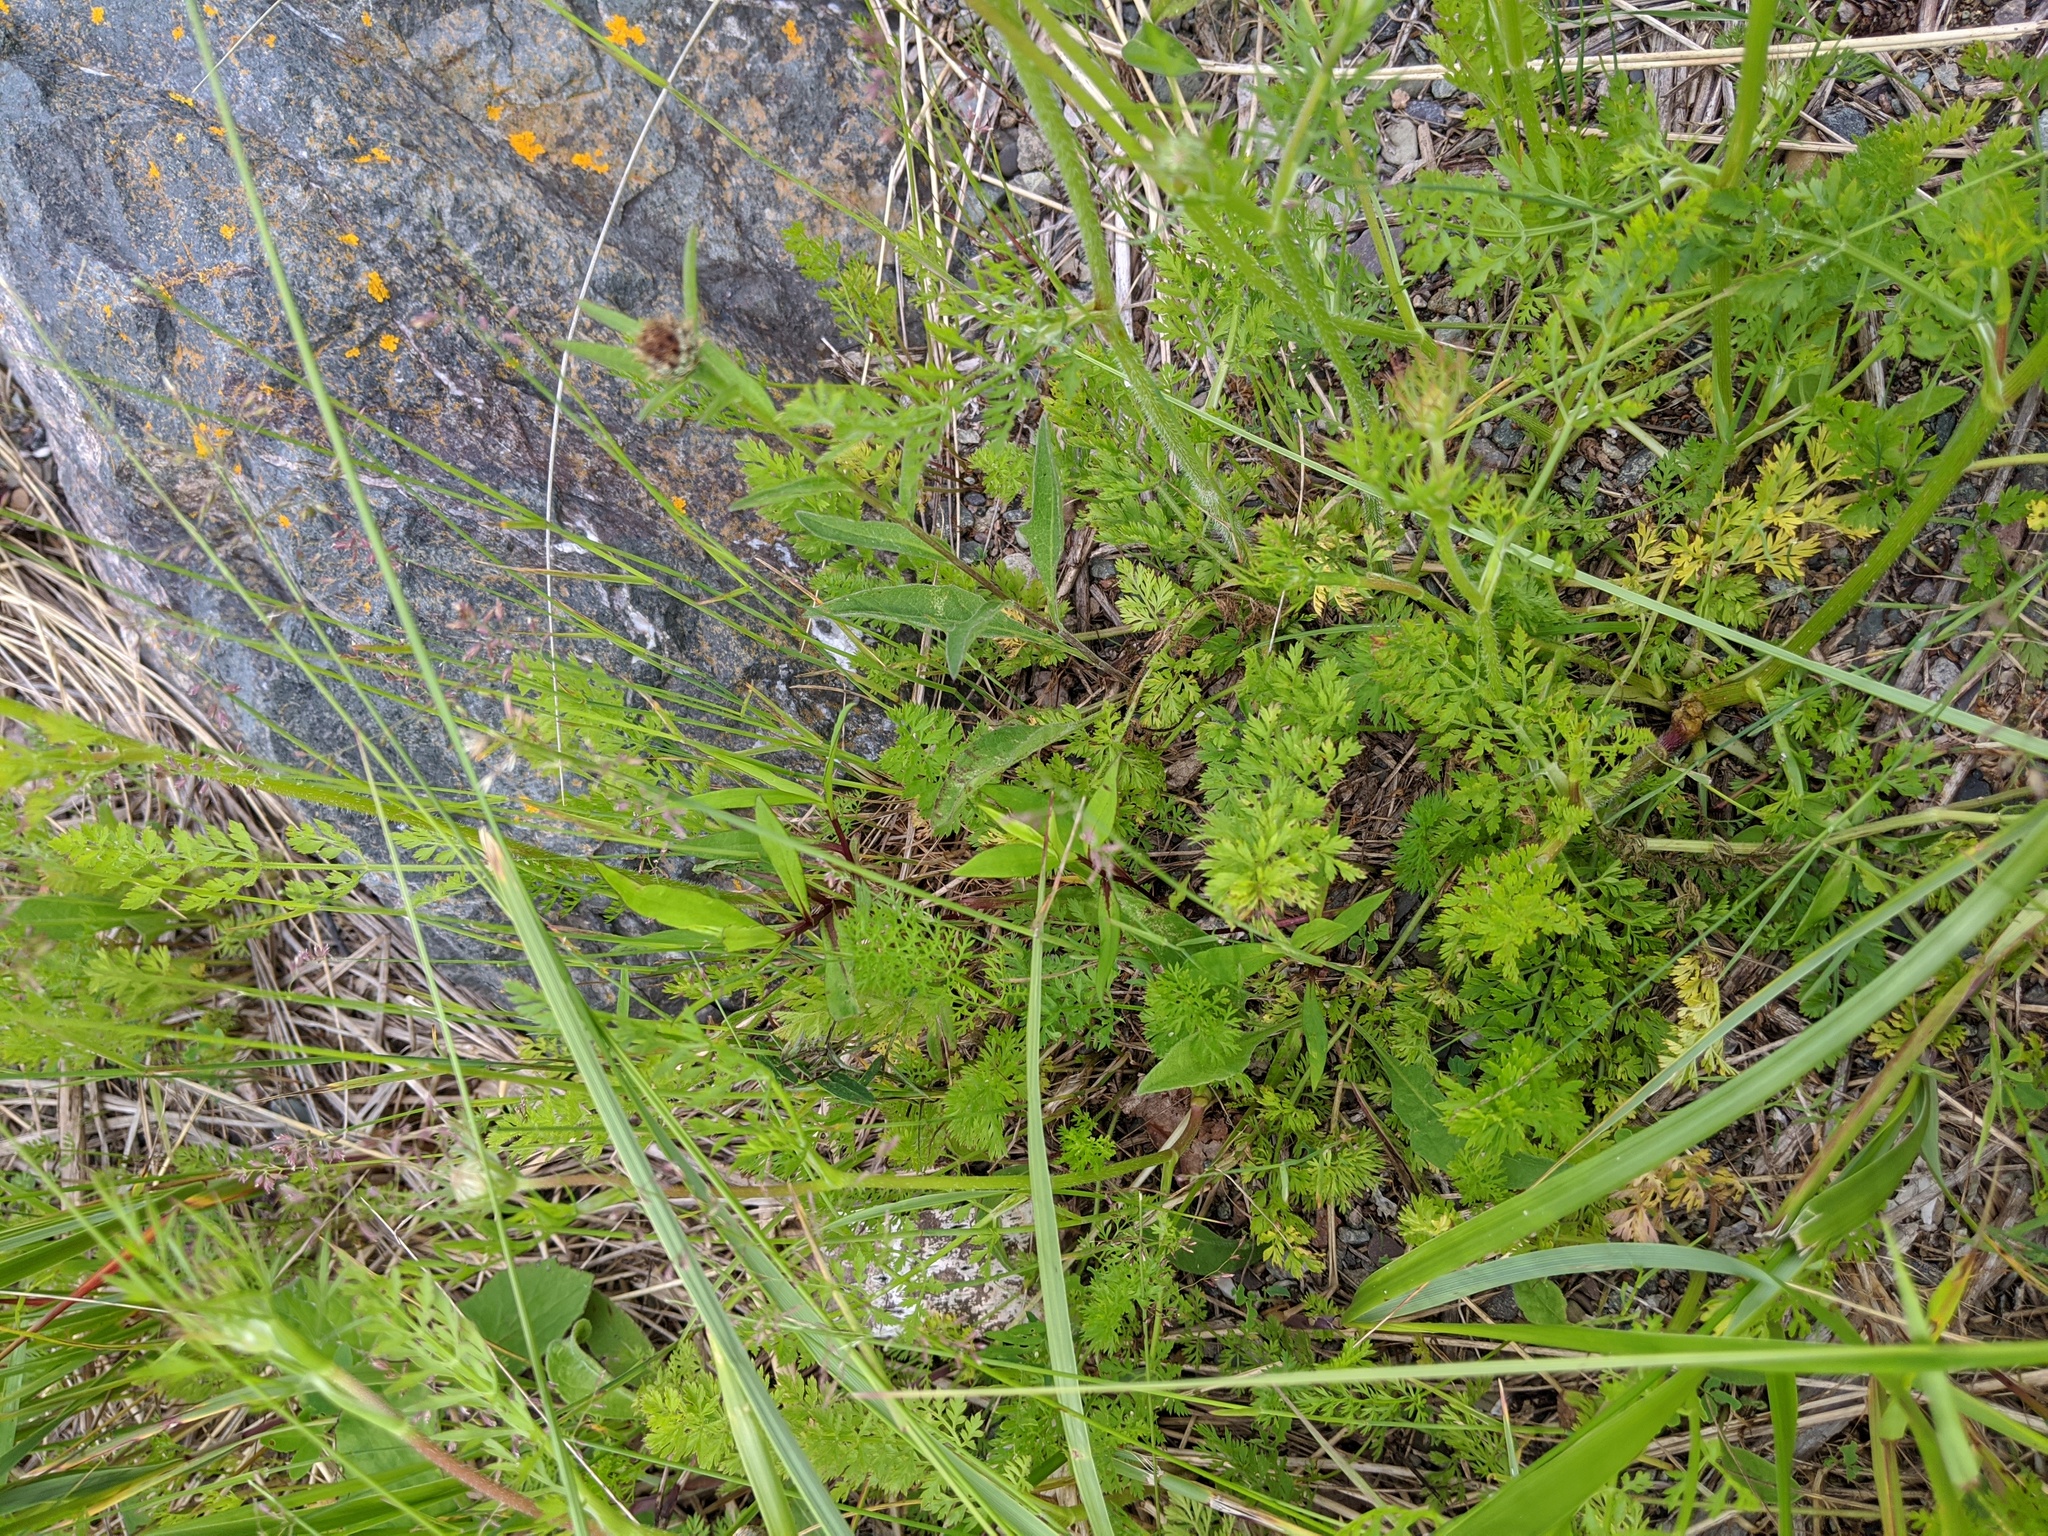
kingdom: Plantae
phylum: Tracheophyta
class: Magnoliopsida
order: Apiales
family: Apiaceae
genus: Daucus
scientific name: Daucus carota
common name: Wild carrot
